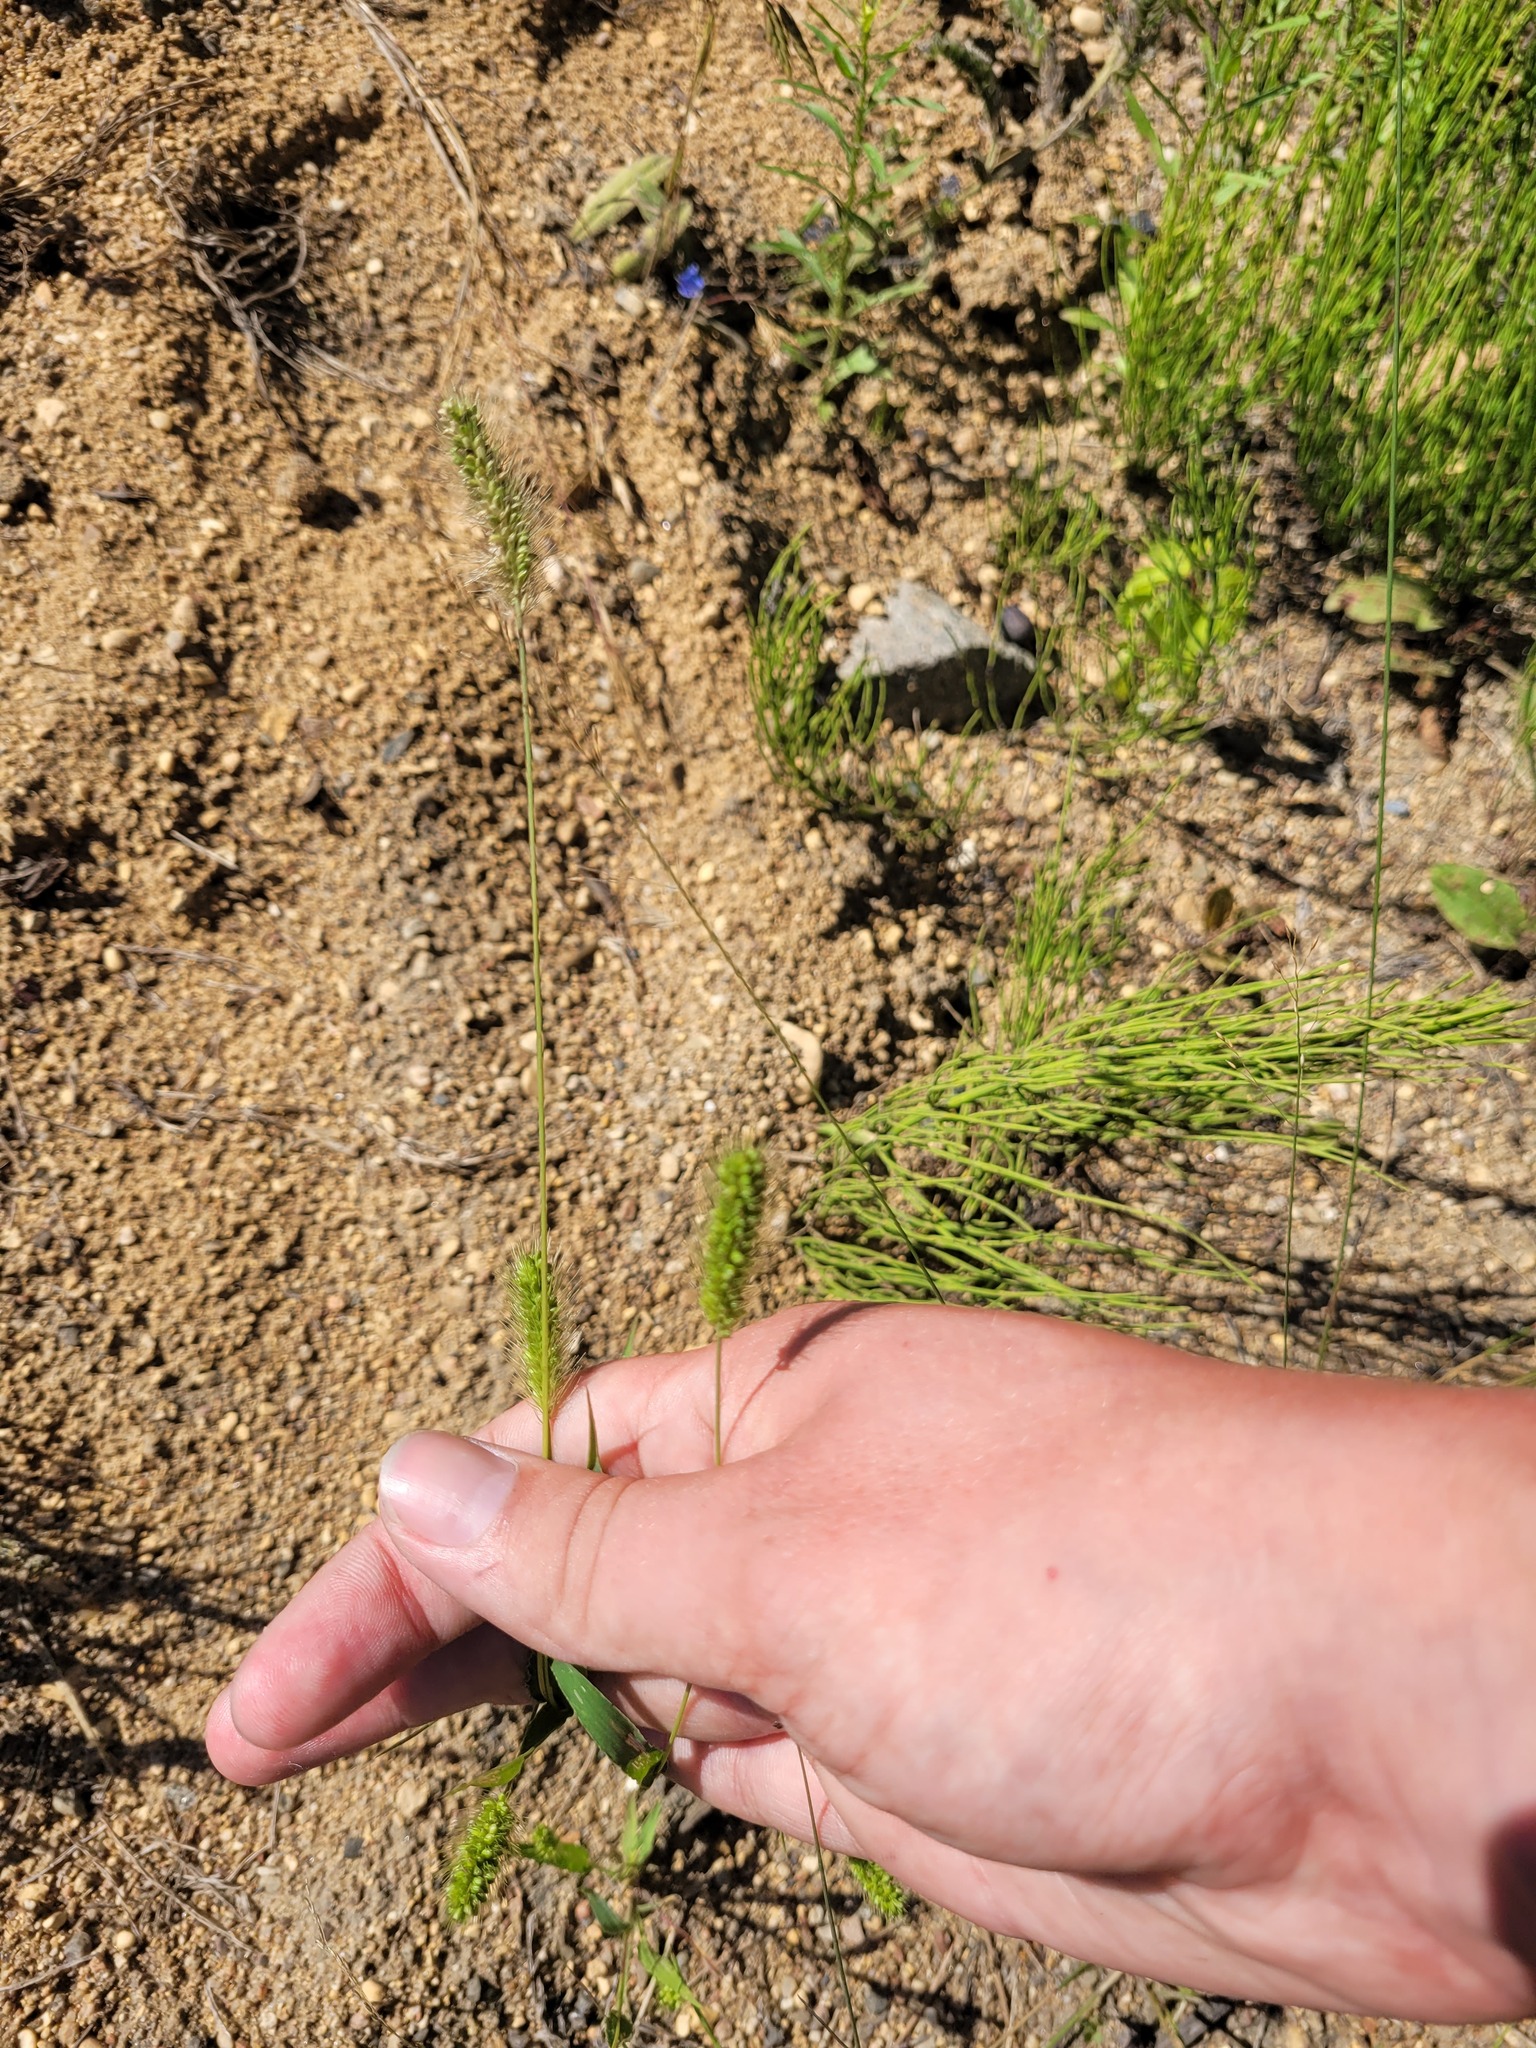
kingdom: Plantae
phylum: Tracheophyta
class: Liliopsida
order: Poales
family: Poaceae
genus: Setaria
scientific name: Setaria viridis
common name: Green bristlegrass
